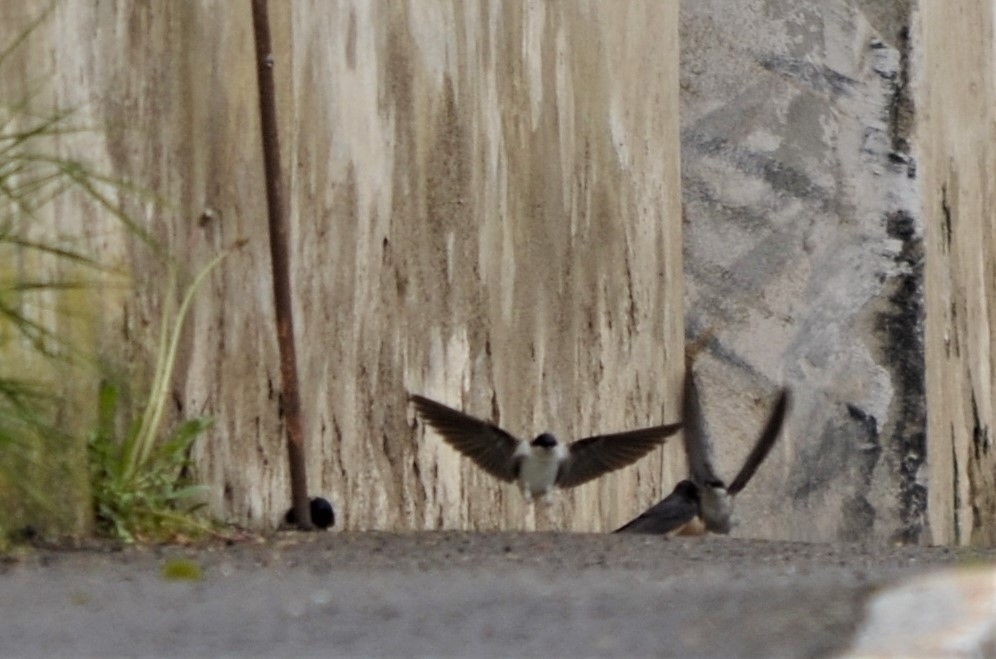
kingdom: Animalia
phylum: Chordata
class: Aves
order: Passeriformes
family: Hirundinidae
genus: Delichon
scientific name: Delichon urbicum
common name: Common house martin
